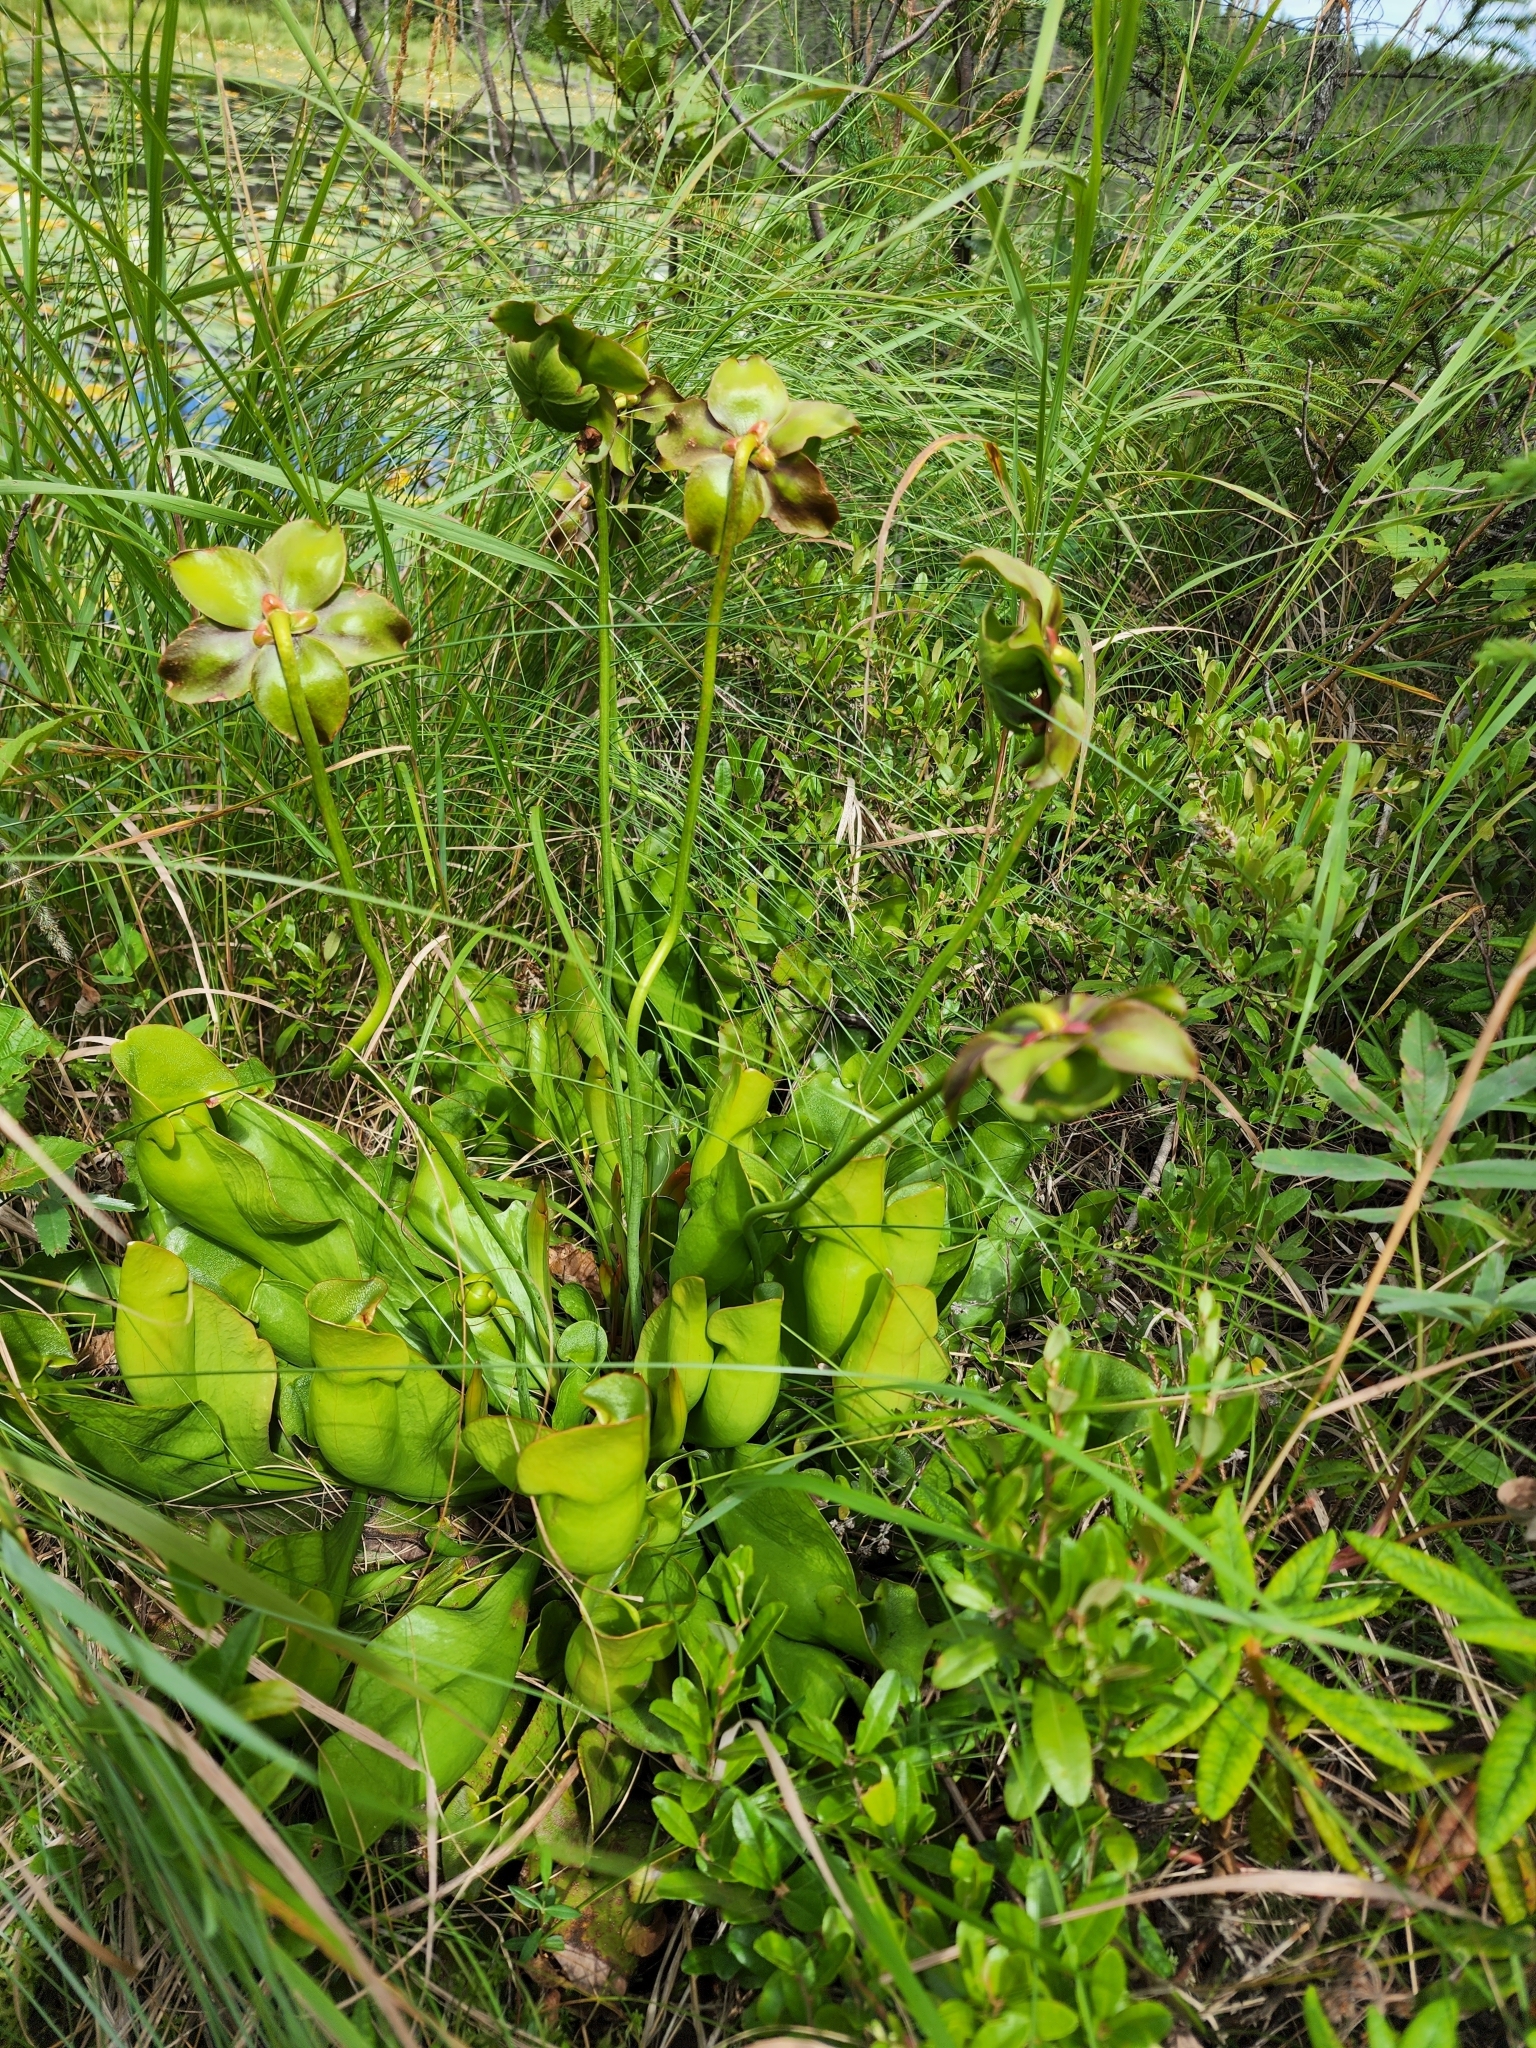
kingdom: Plantae
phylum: Tracheophyta
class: Magnoliopsida
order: Ericales
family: Sarraceniaceae
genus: Sarracenia
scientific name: Sarracenia purpurea
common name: Pitcherplant
